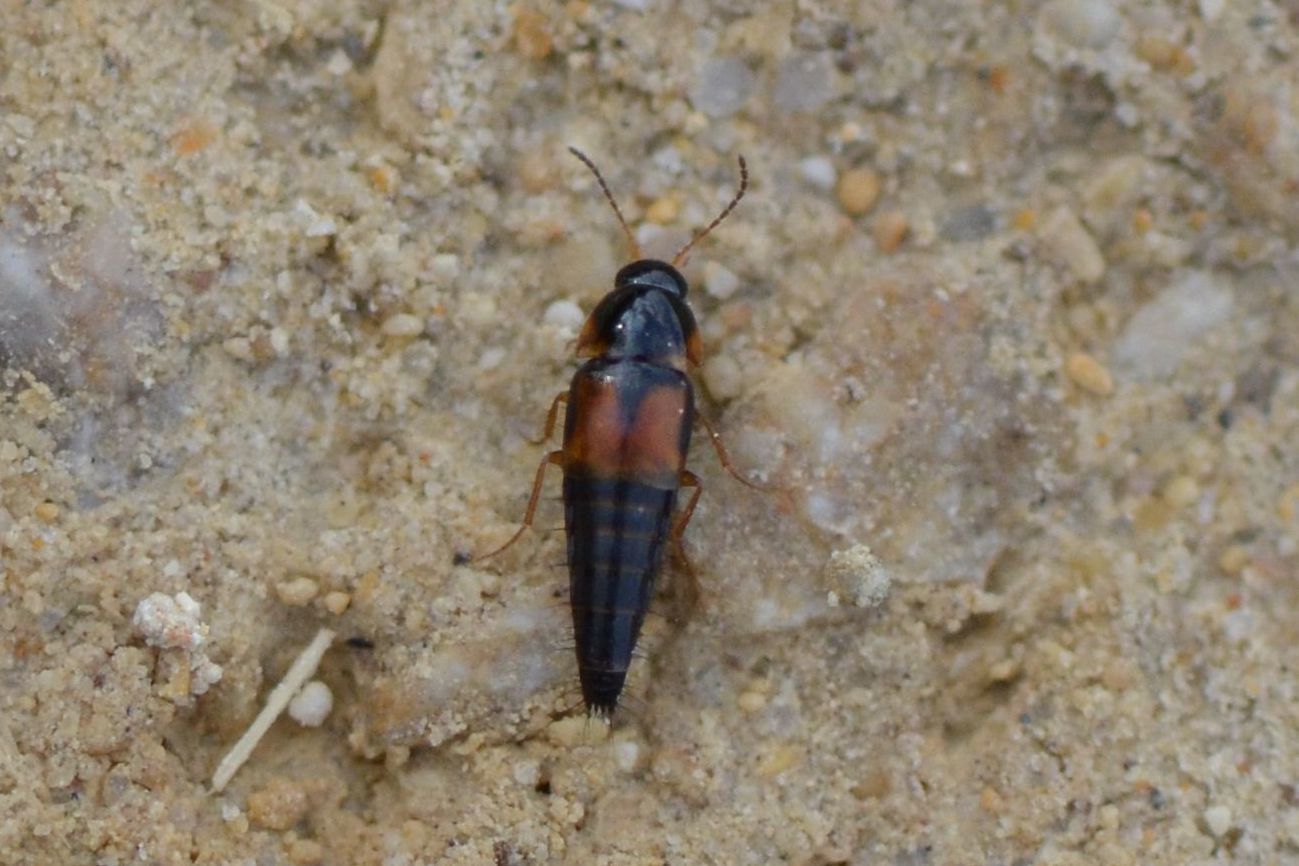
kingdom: Animalia
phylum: Arthropoda
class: Insecta
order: Coleoptera
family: Staphylinidae
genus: Tachyporus
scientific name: Tachyporus hypnorum
